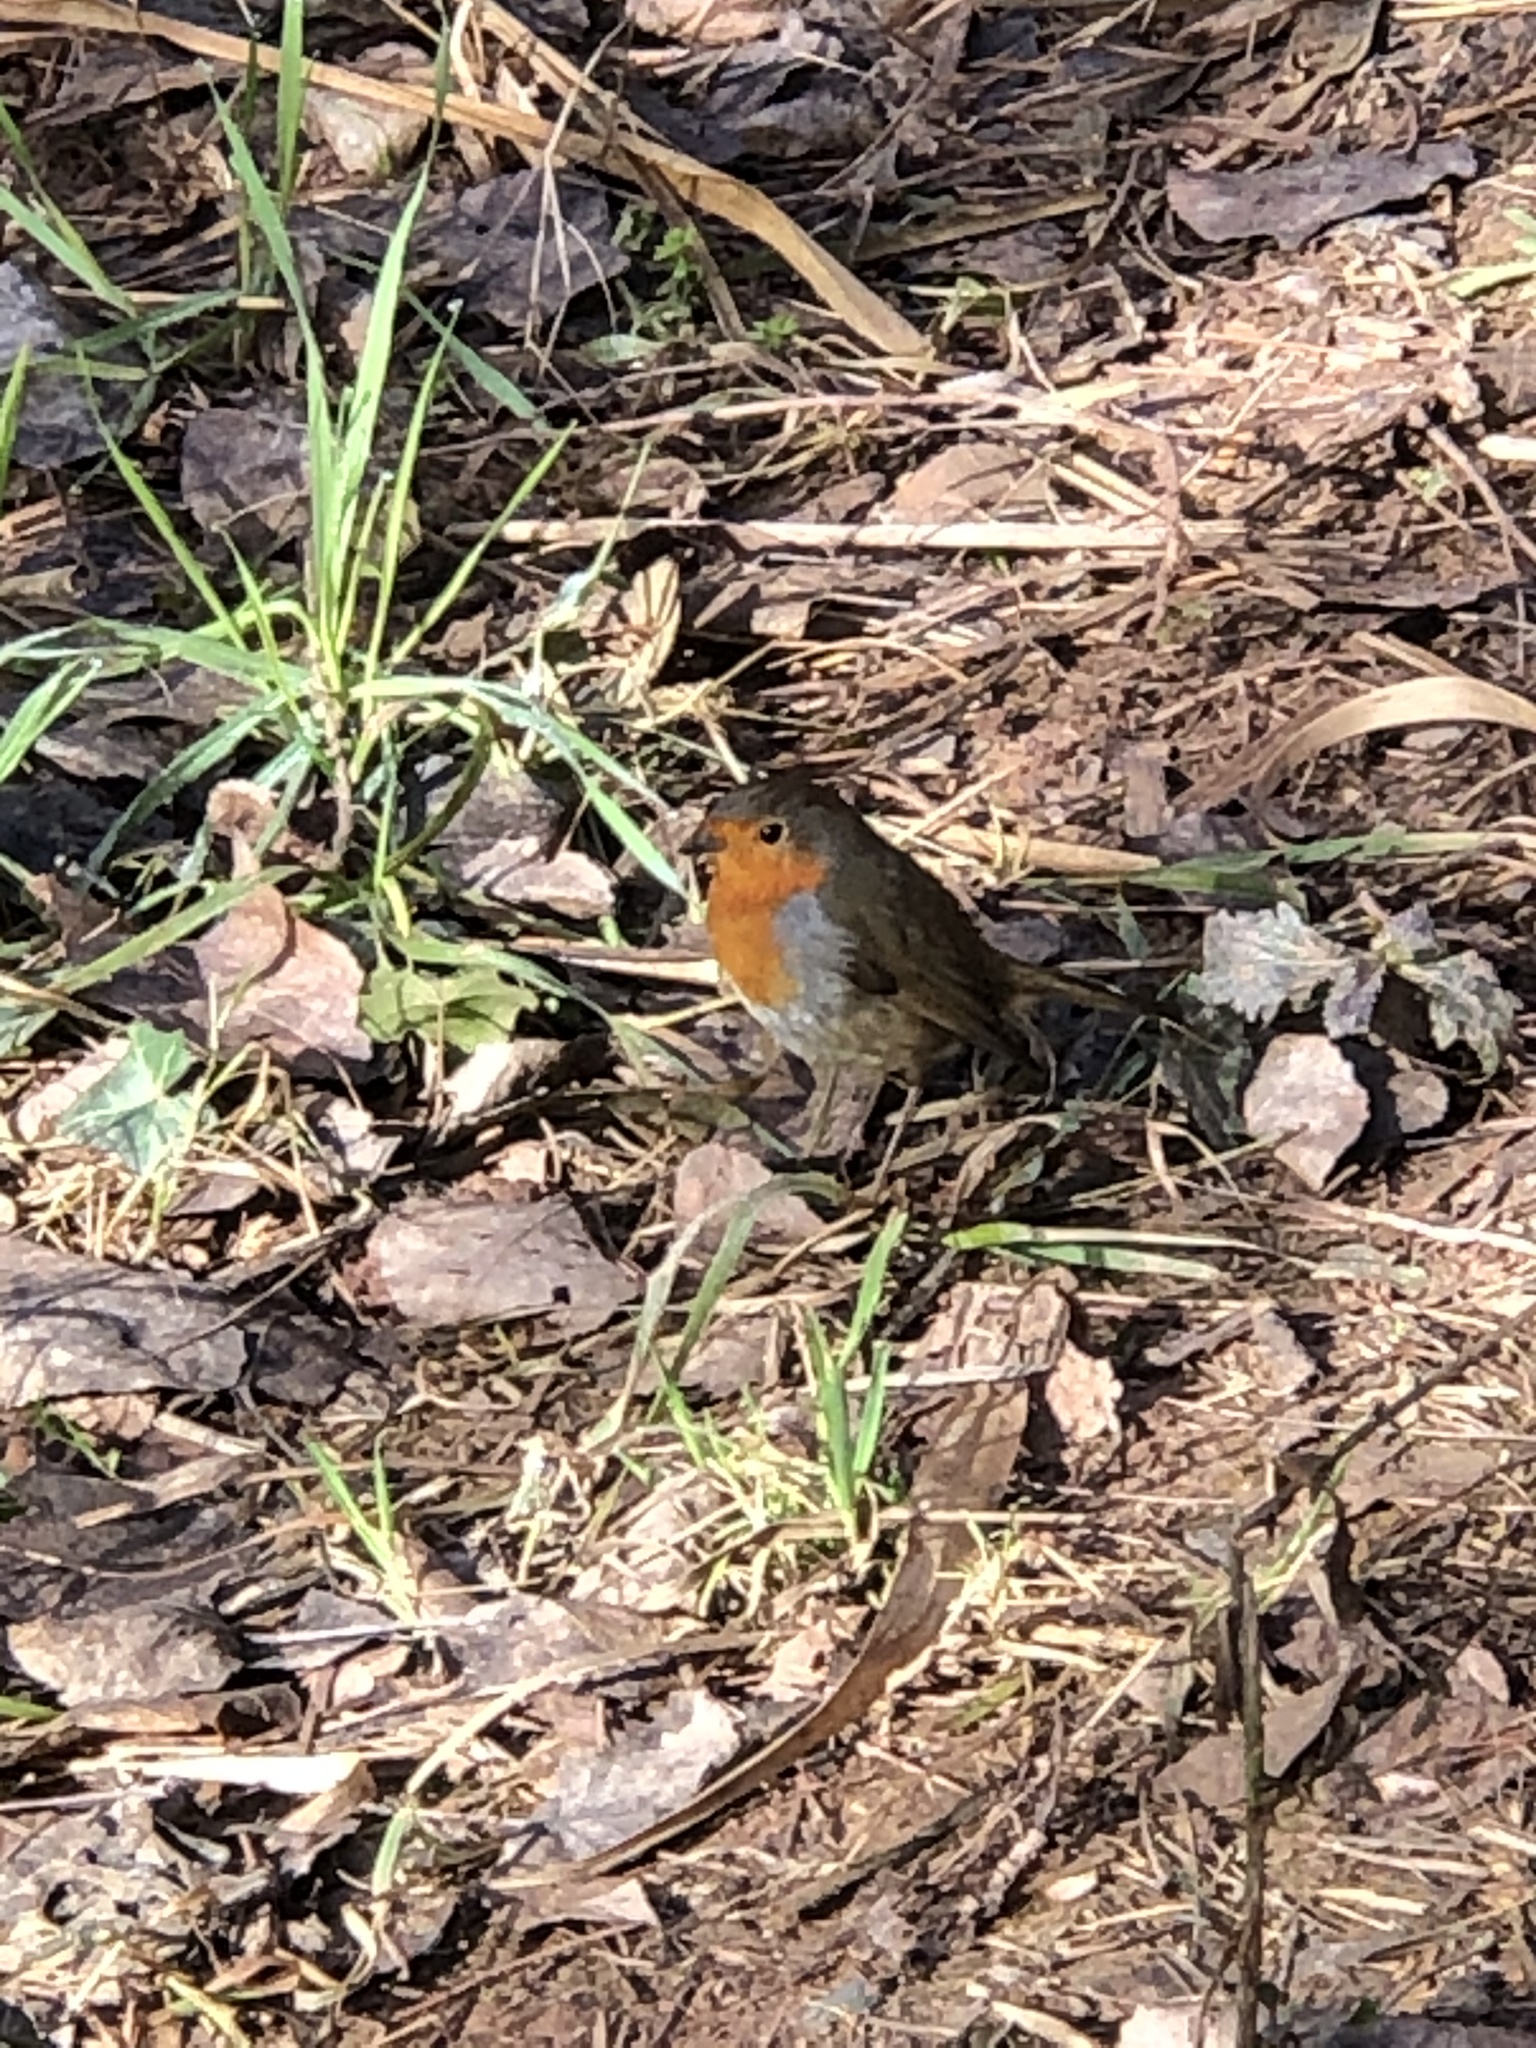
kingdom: Animalia
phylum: Chordata
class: Aves
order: Passeriformes
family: Muscicapidae
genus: Erithacus
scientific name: Erithacus rubecula
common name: European robin
